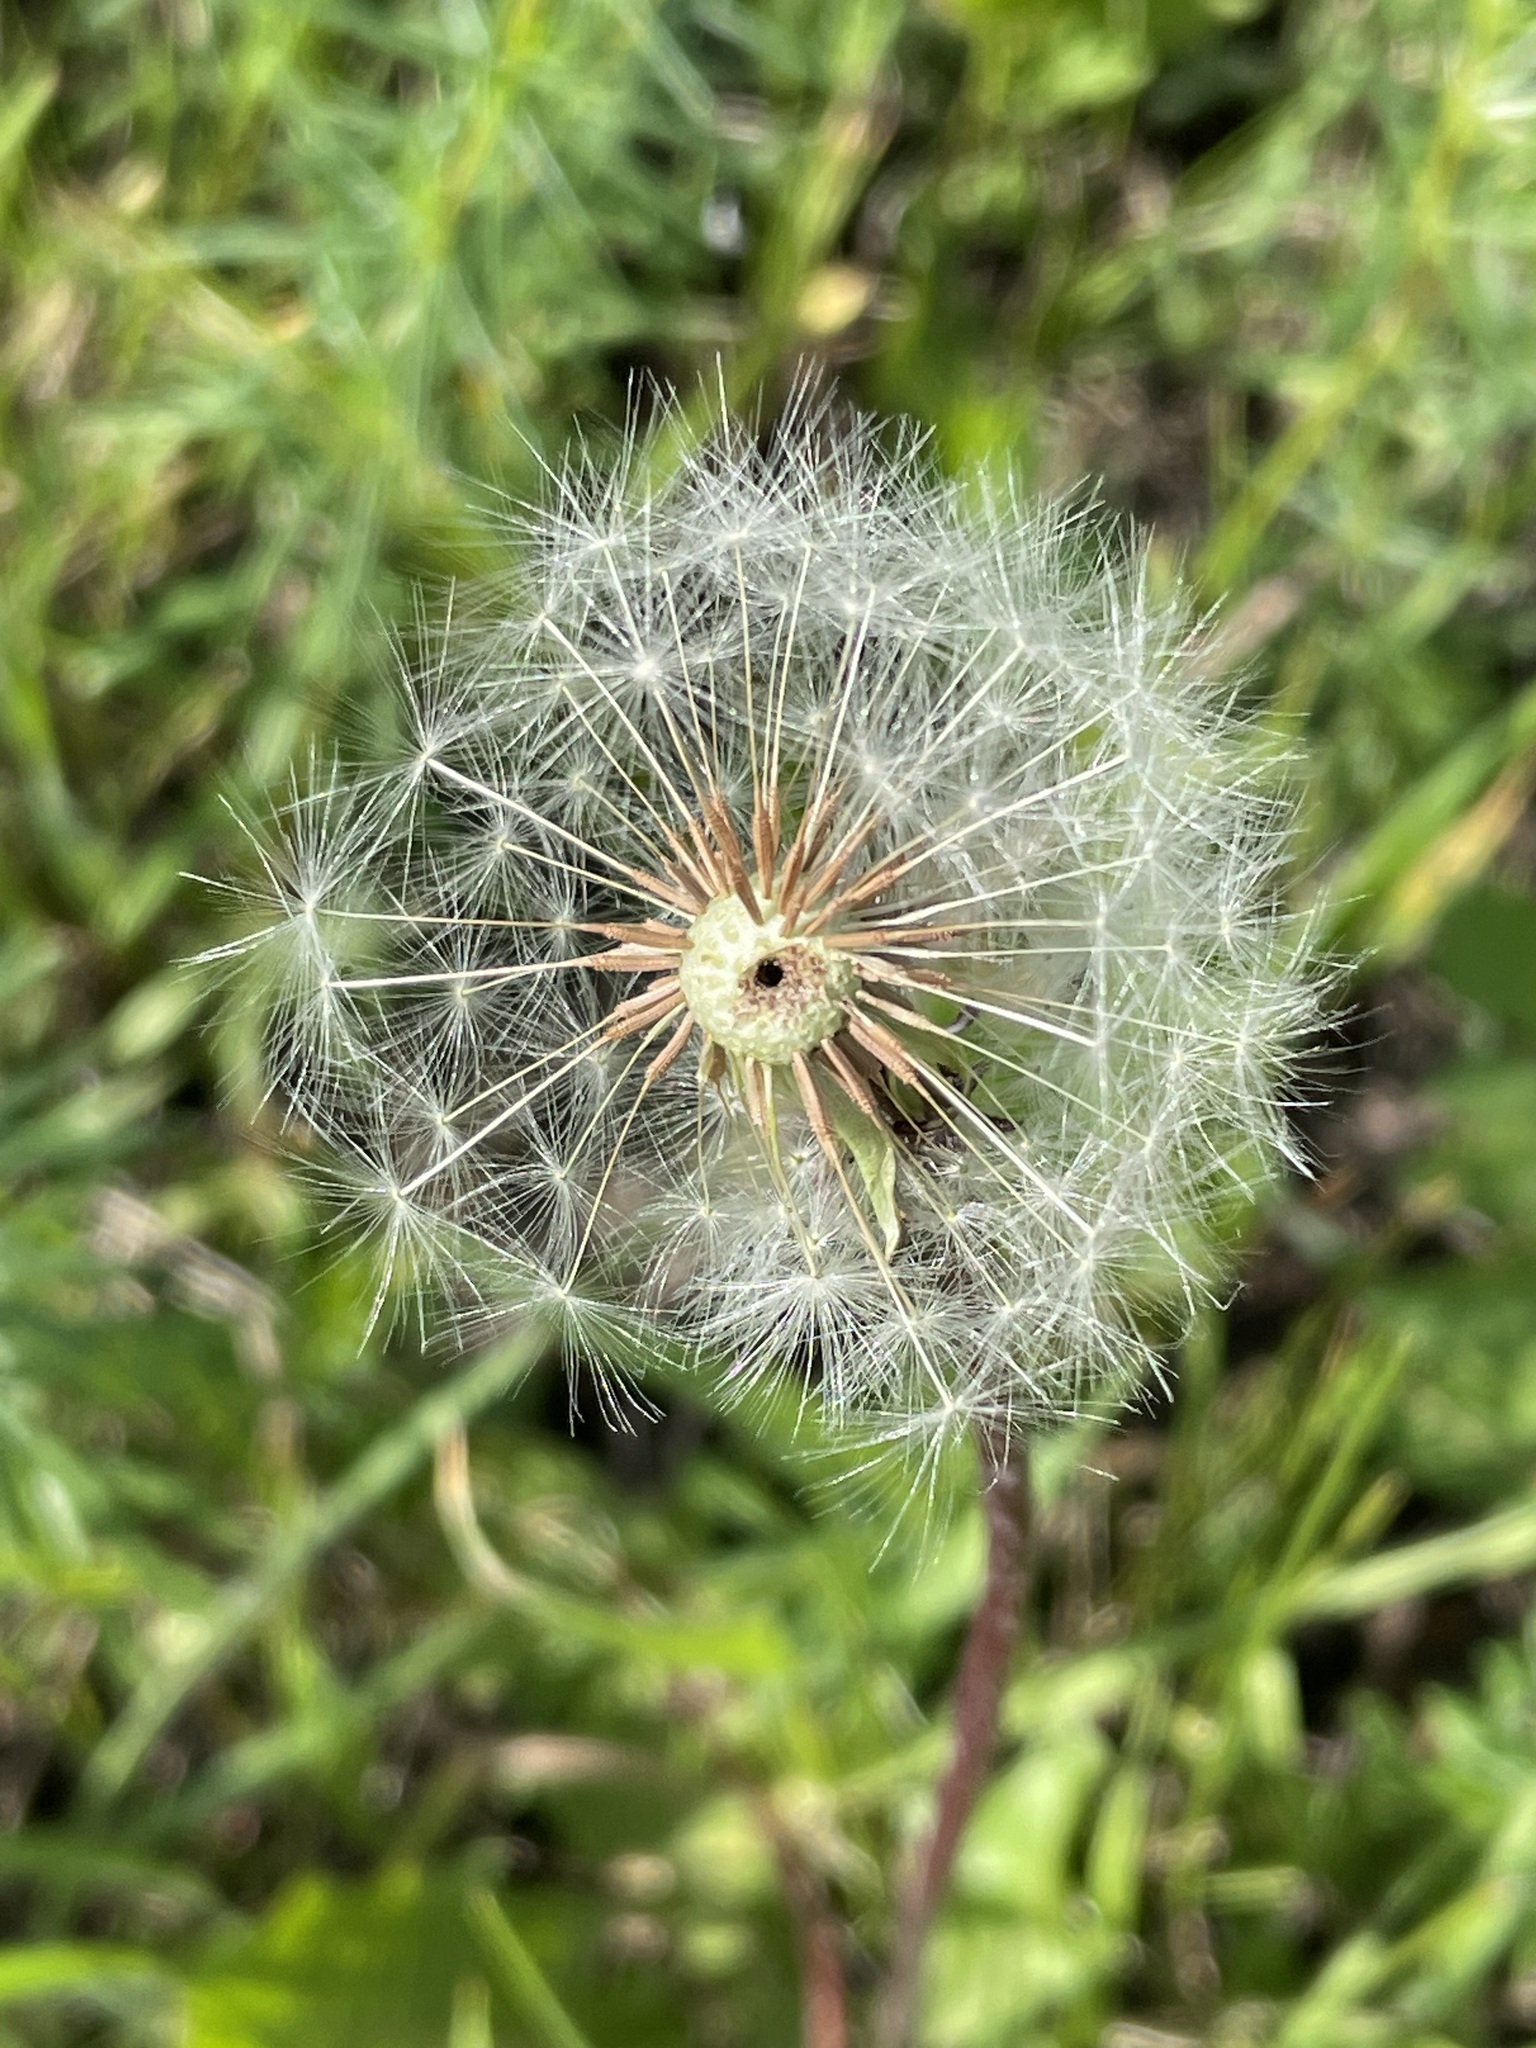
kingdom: Plantae
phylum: Tracheophyta
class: Magnoliopsida
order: Asterales
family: Asteraceae
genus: Taraxacum
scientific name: Taraxacum officinale
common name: Common dandelion
